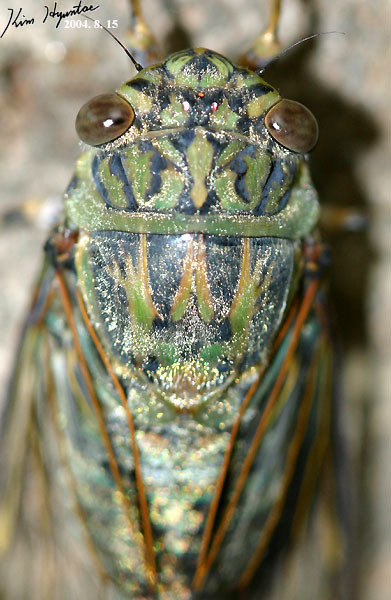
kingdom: Animalia
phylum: Arthropoda
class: Insecta
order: Hemiptera
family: Cicadidae
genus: Meimuna
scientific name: Meimuna opalifera
